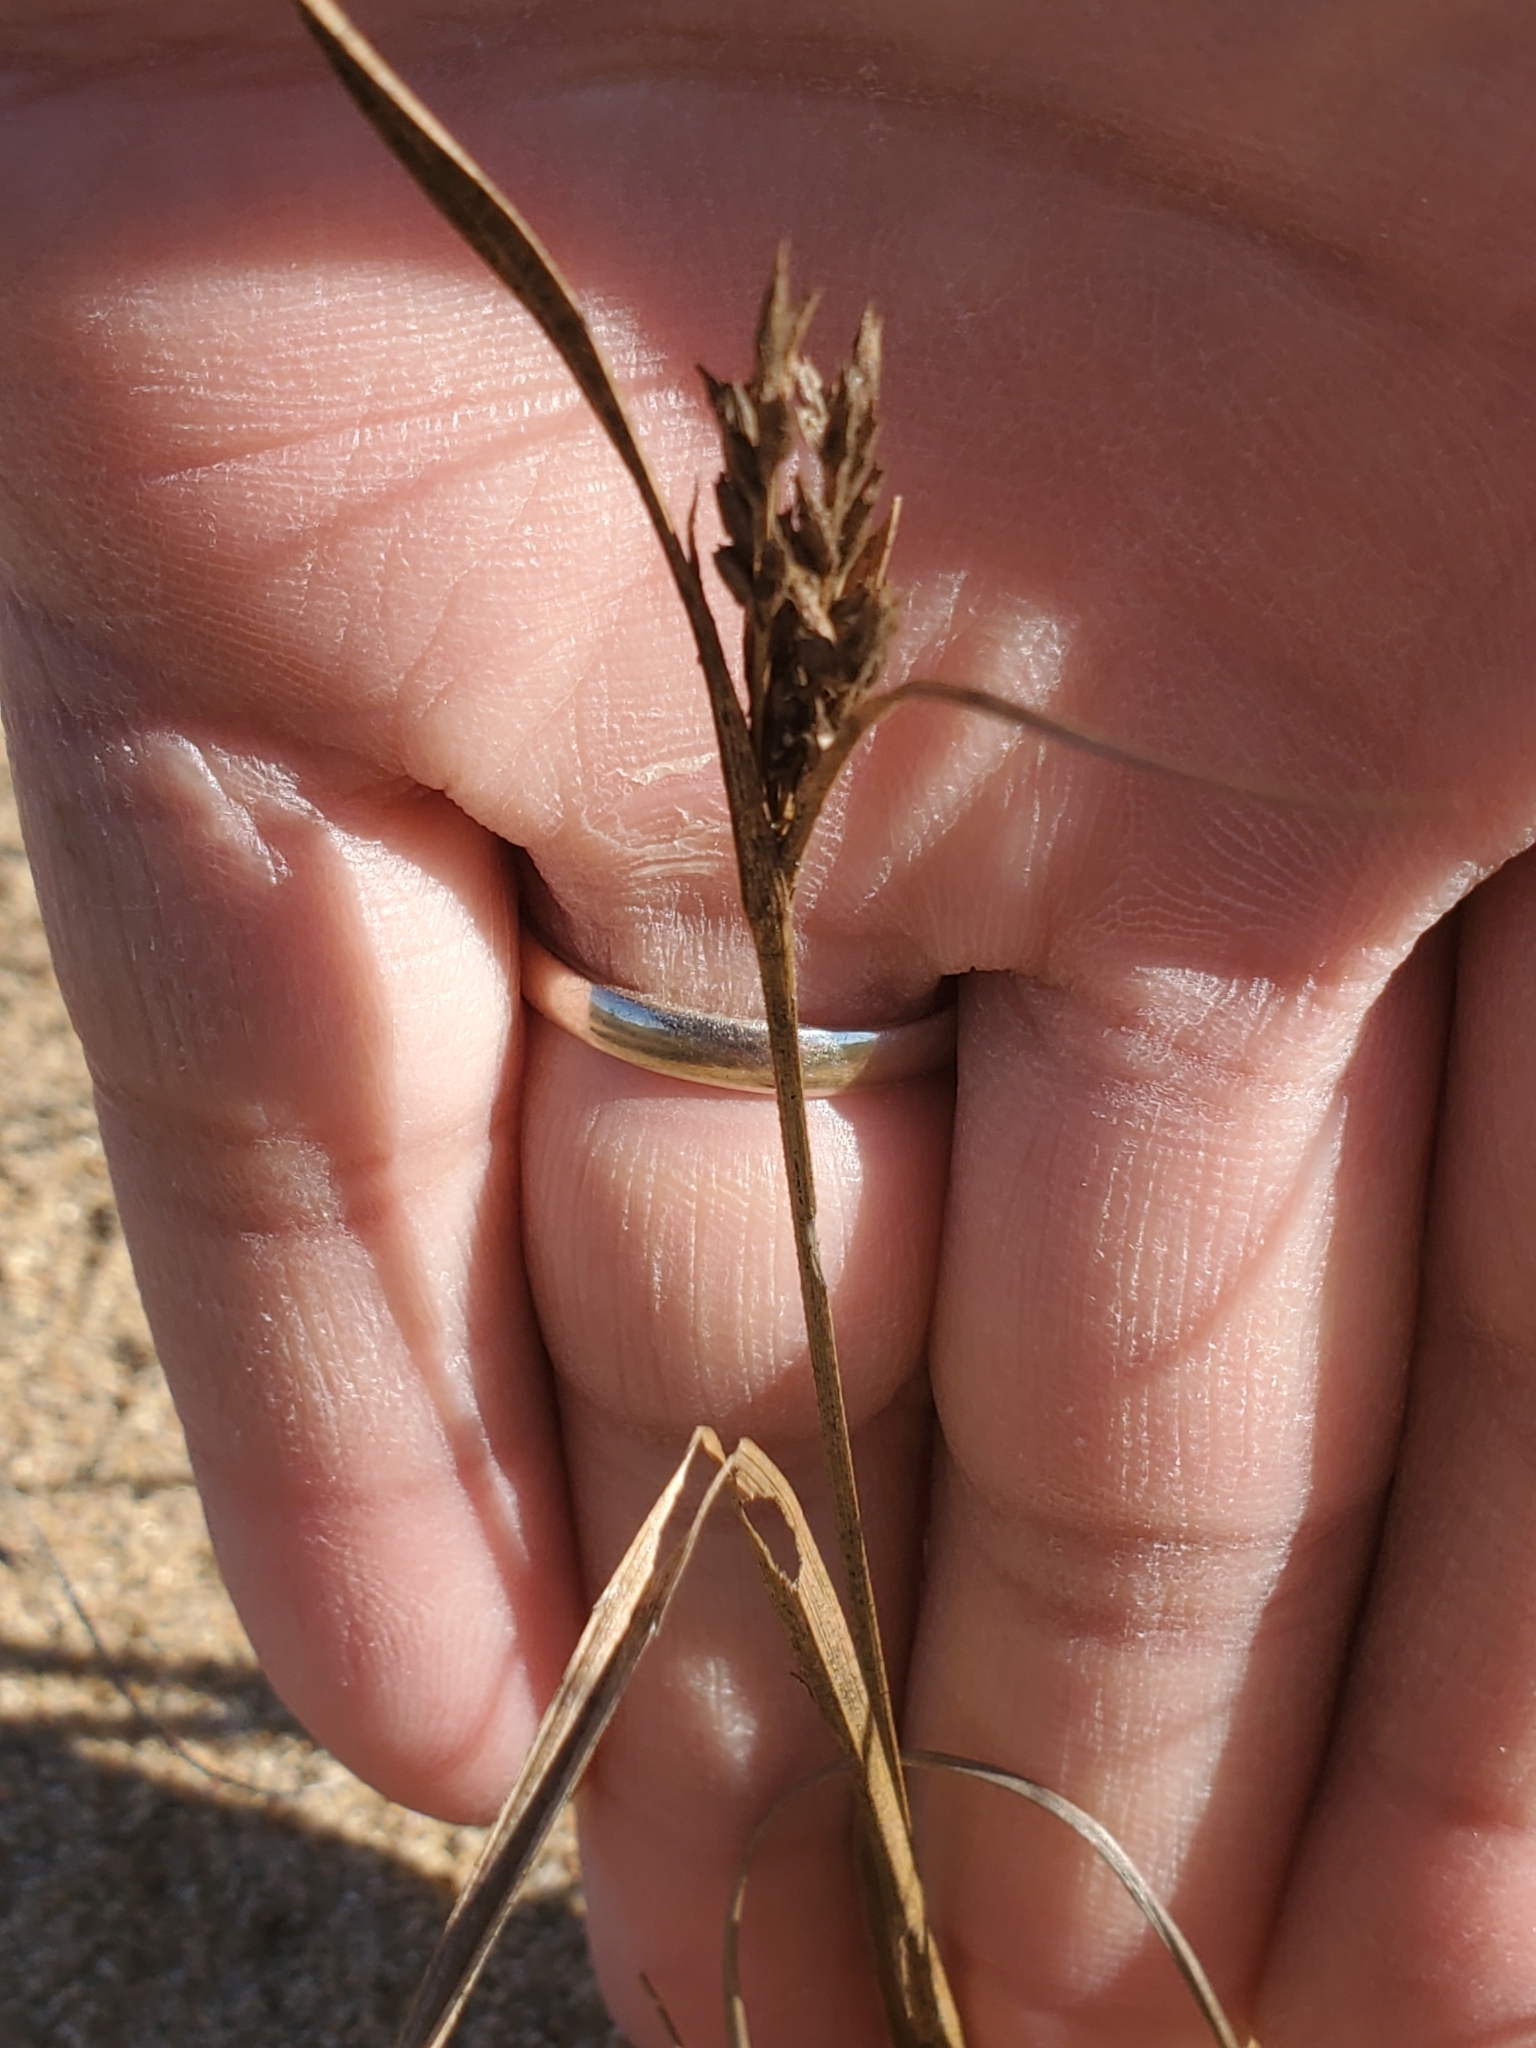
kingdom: Plantae
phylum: Tracheophyta
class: Liliopsida
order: Poales
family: Cyperaceae
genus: Cyperus
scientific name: Cyperus schweinitzii
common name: Schweinitz's cyperus
